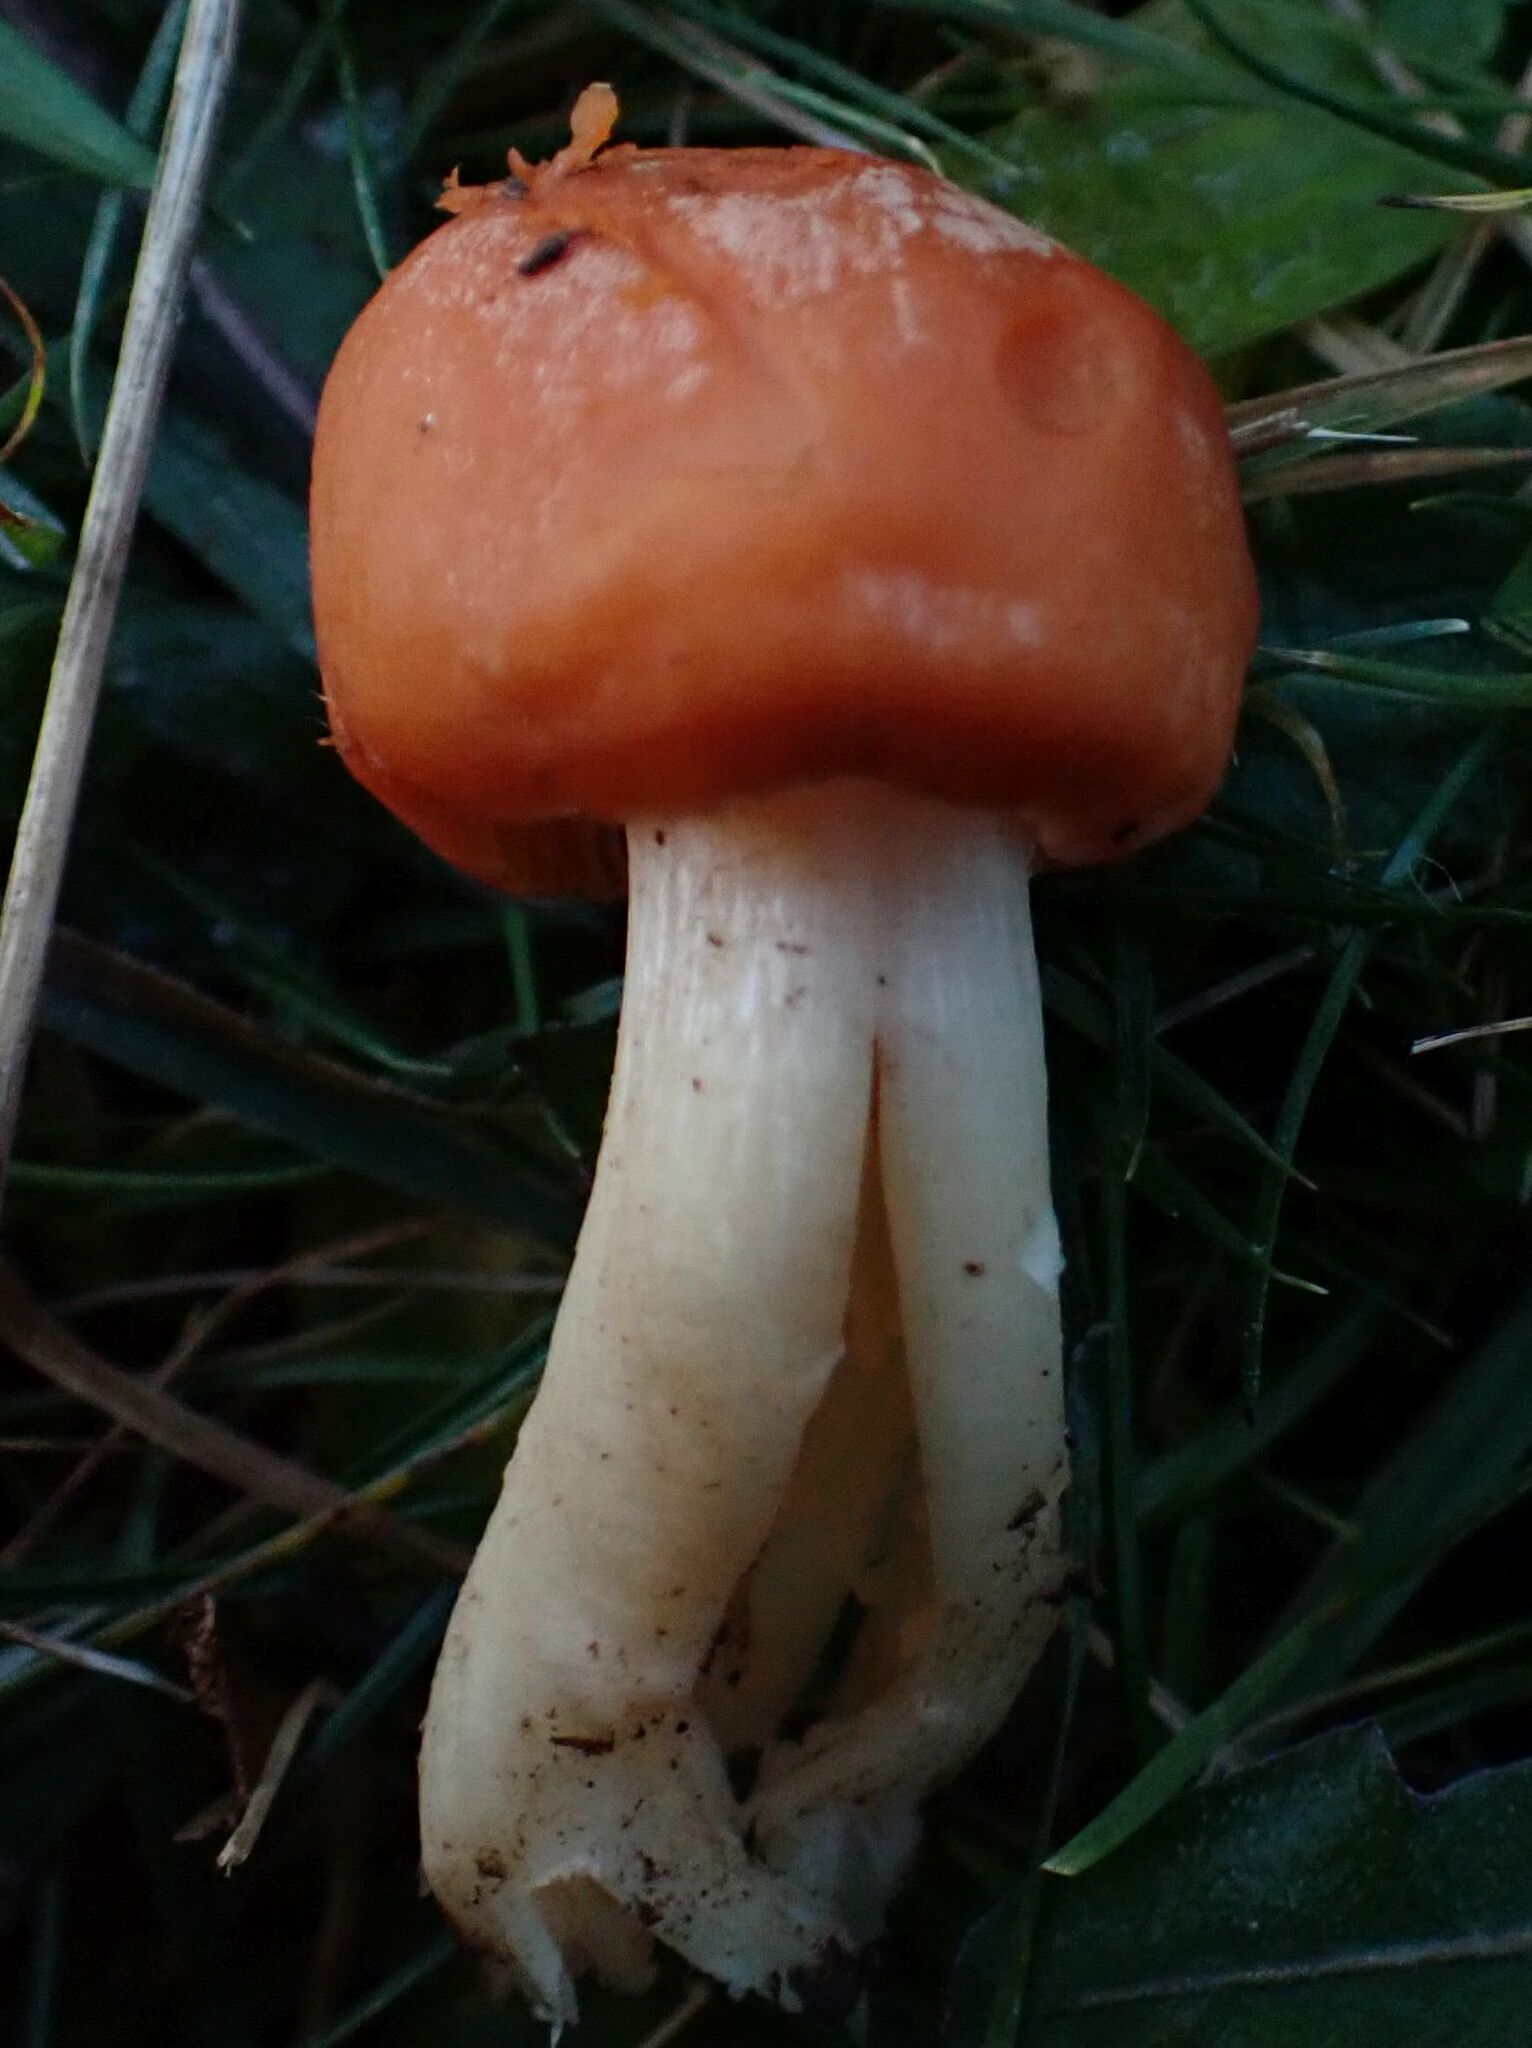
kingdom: Fungi
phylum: Basidiomycota
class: Agaricomycetes
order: Agaricales
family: Hygrophoraceae
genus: Cuphophyllus
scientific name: Cuphophyllus pratensis
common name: Meadow waxcap
